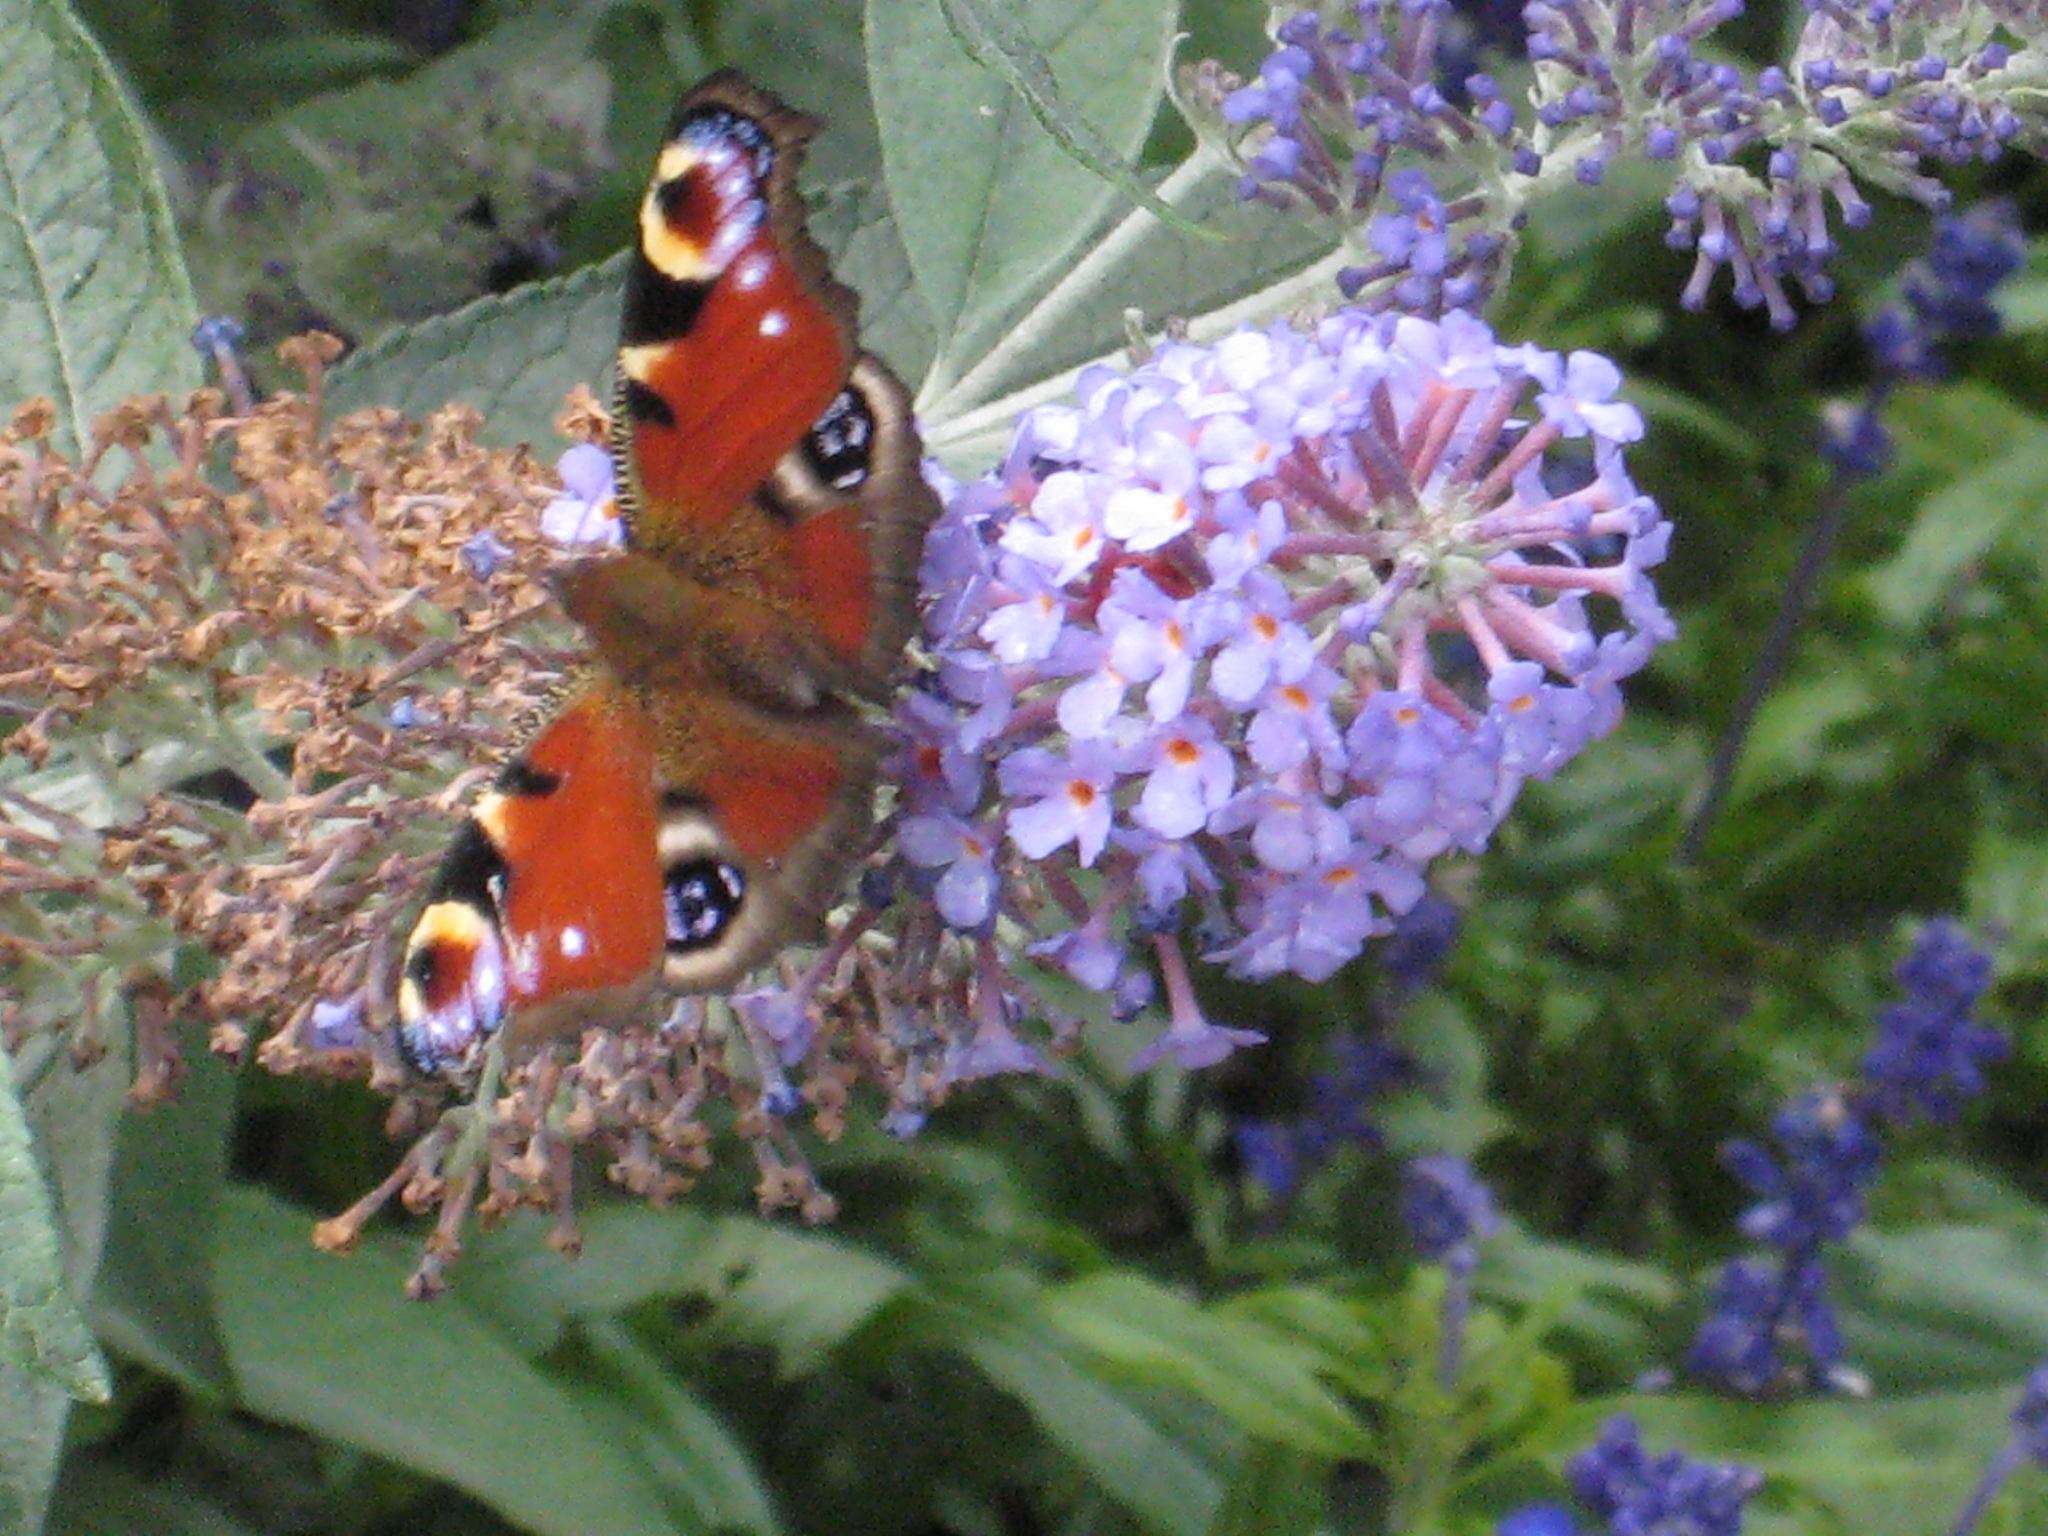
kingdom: Animalia
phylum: Arthropoda
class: Insecta
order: Lepidoptera
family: Nymphalidae
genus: Aglais
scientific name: Aglais io
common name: Peacock
